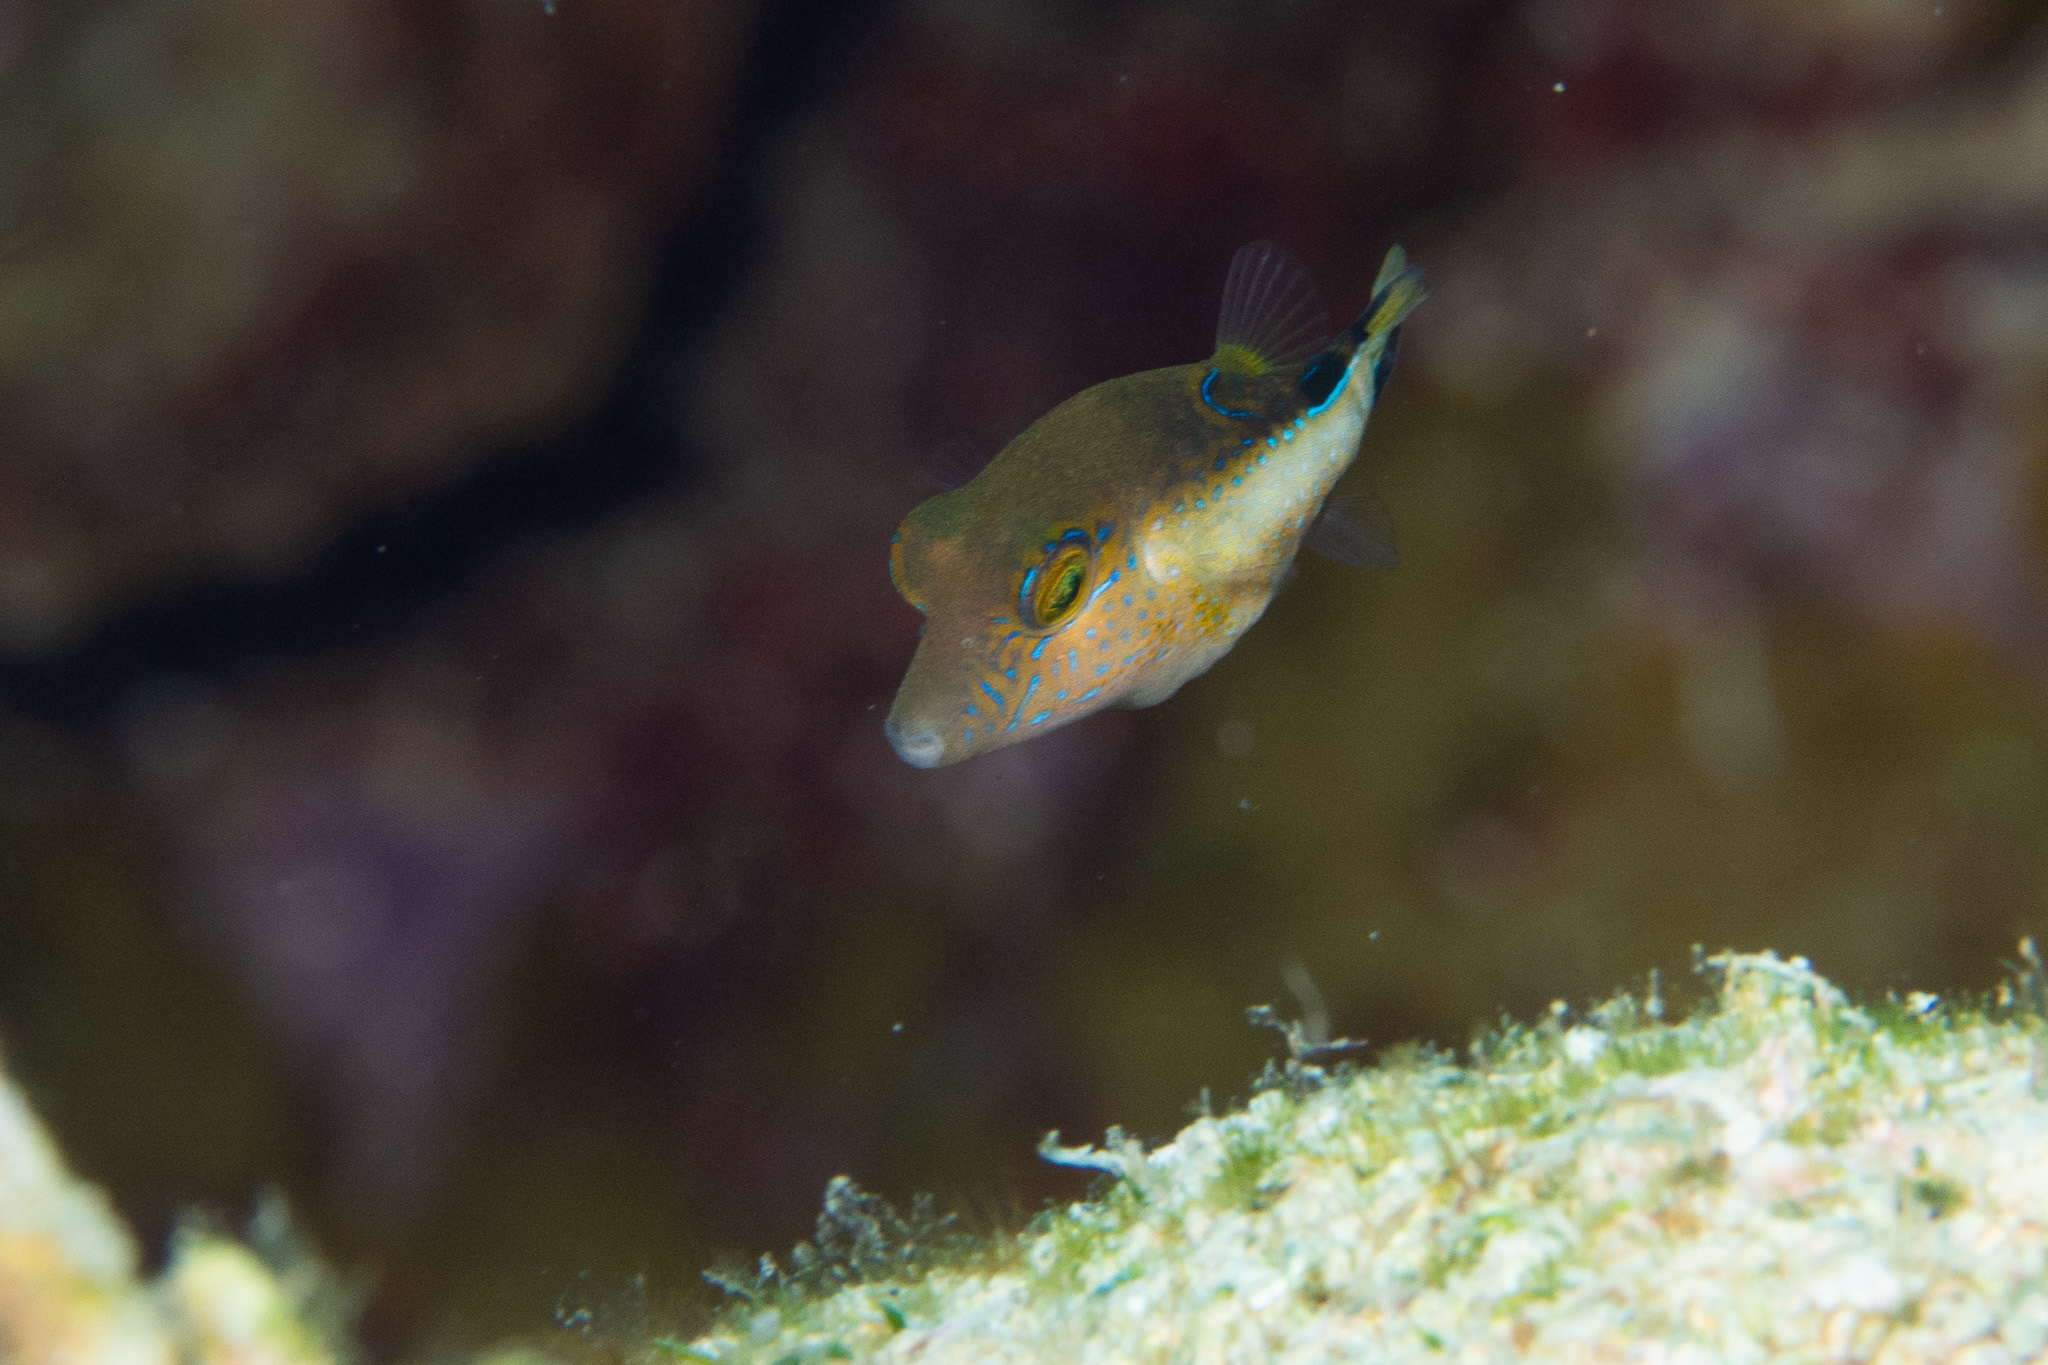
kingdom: Animalia
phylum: Chordata
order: Tetraodontiformes
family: Tetraodontidae
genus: Canthigaster
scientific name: Canthigaster rostrata
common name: Caribbean sharpnose-puffer
